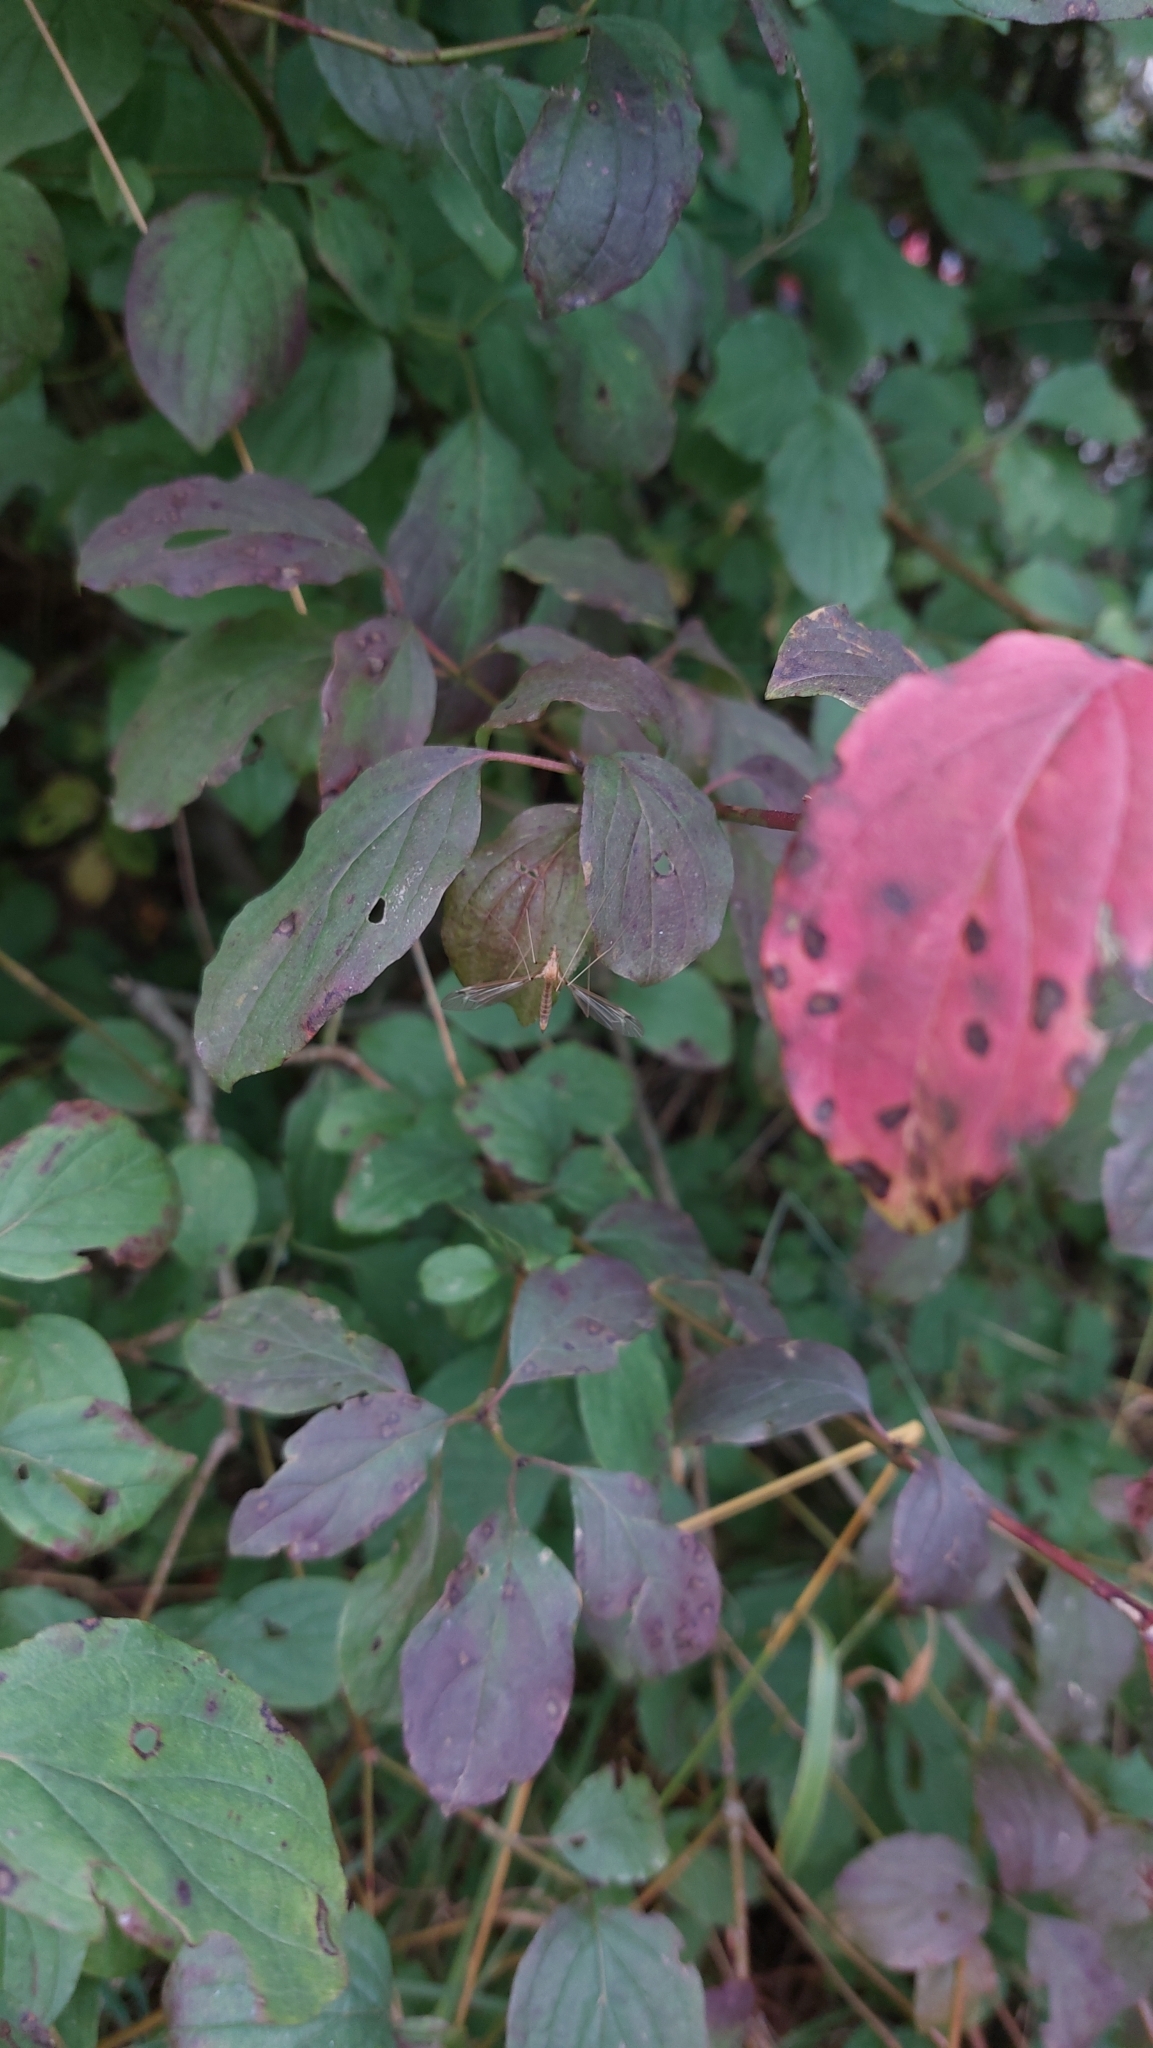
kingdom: Plantae
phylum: Tracheophyta
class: Magnoliopsida
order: Cornales
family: Cornaceae
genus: Cornus
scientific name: Cornus sanguinea
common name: Dogwood
